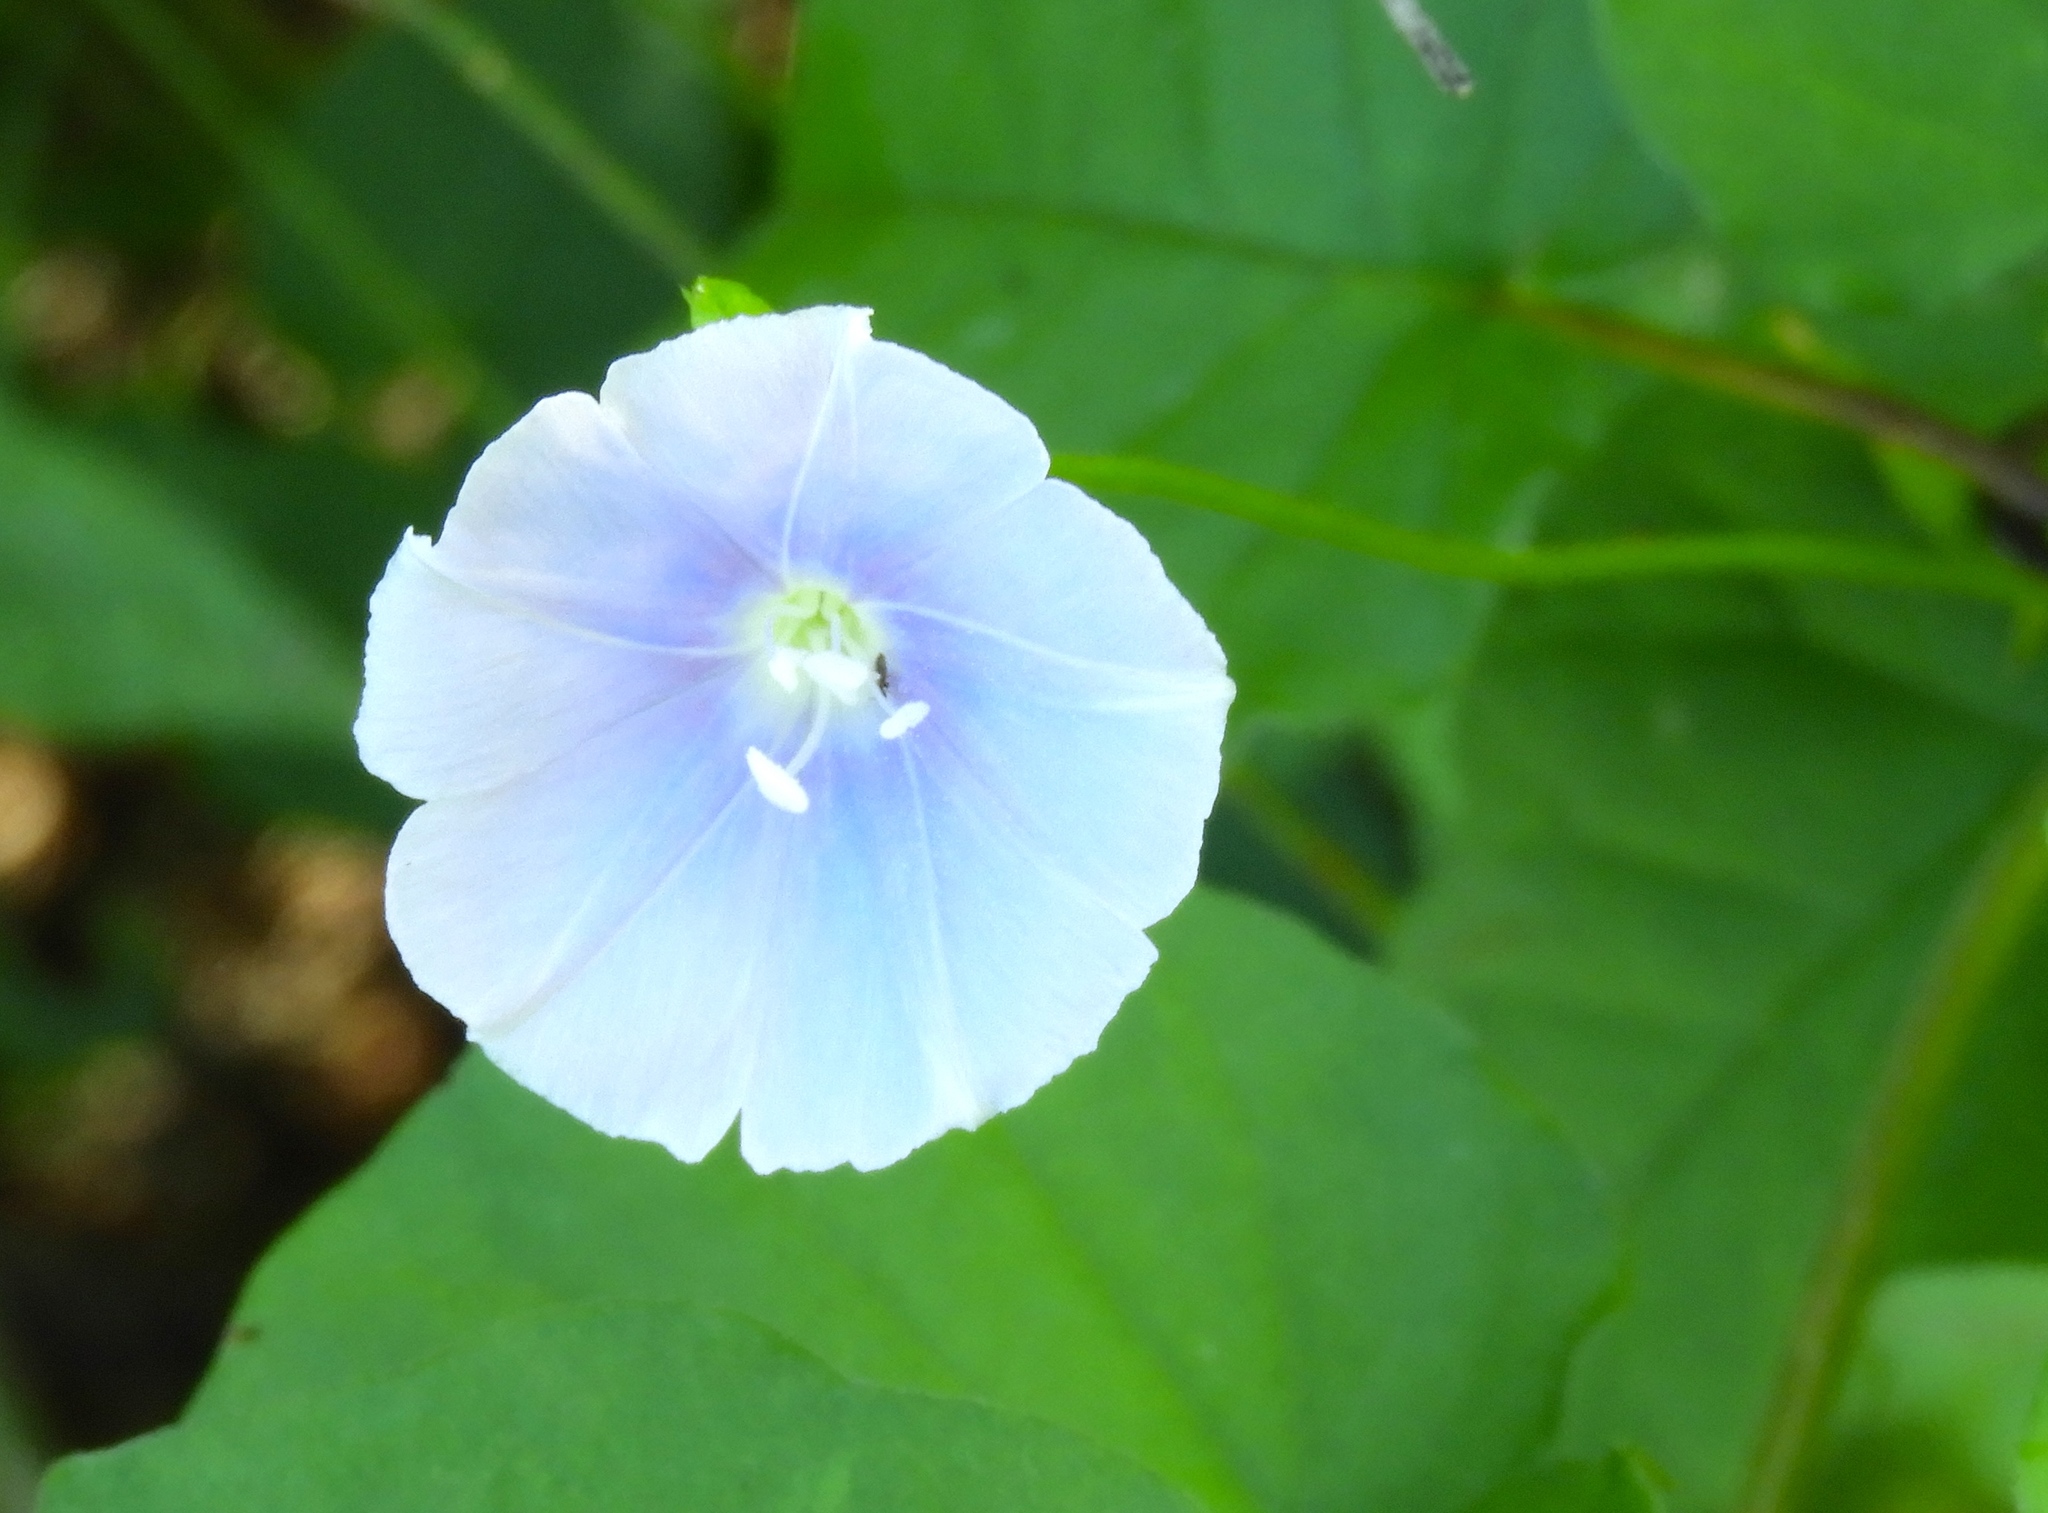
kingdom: Plantae
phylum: Tracheophyta
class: Magnoliopsida
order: Solanales
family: Convolvulaceae
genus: Jacquemontia
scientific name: Jacquemontia pentanthos
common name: Skyblue clustervine
